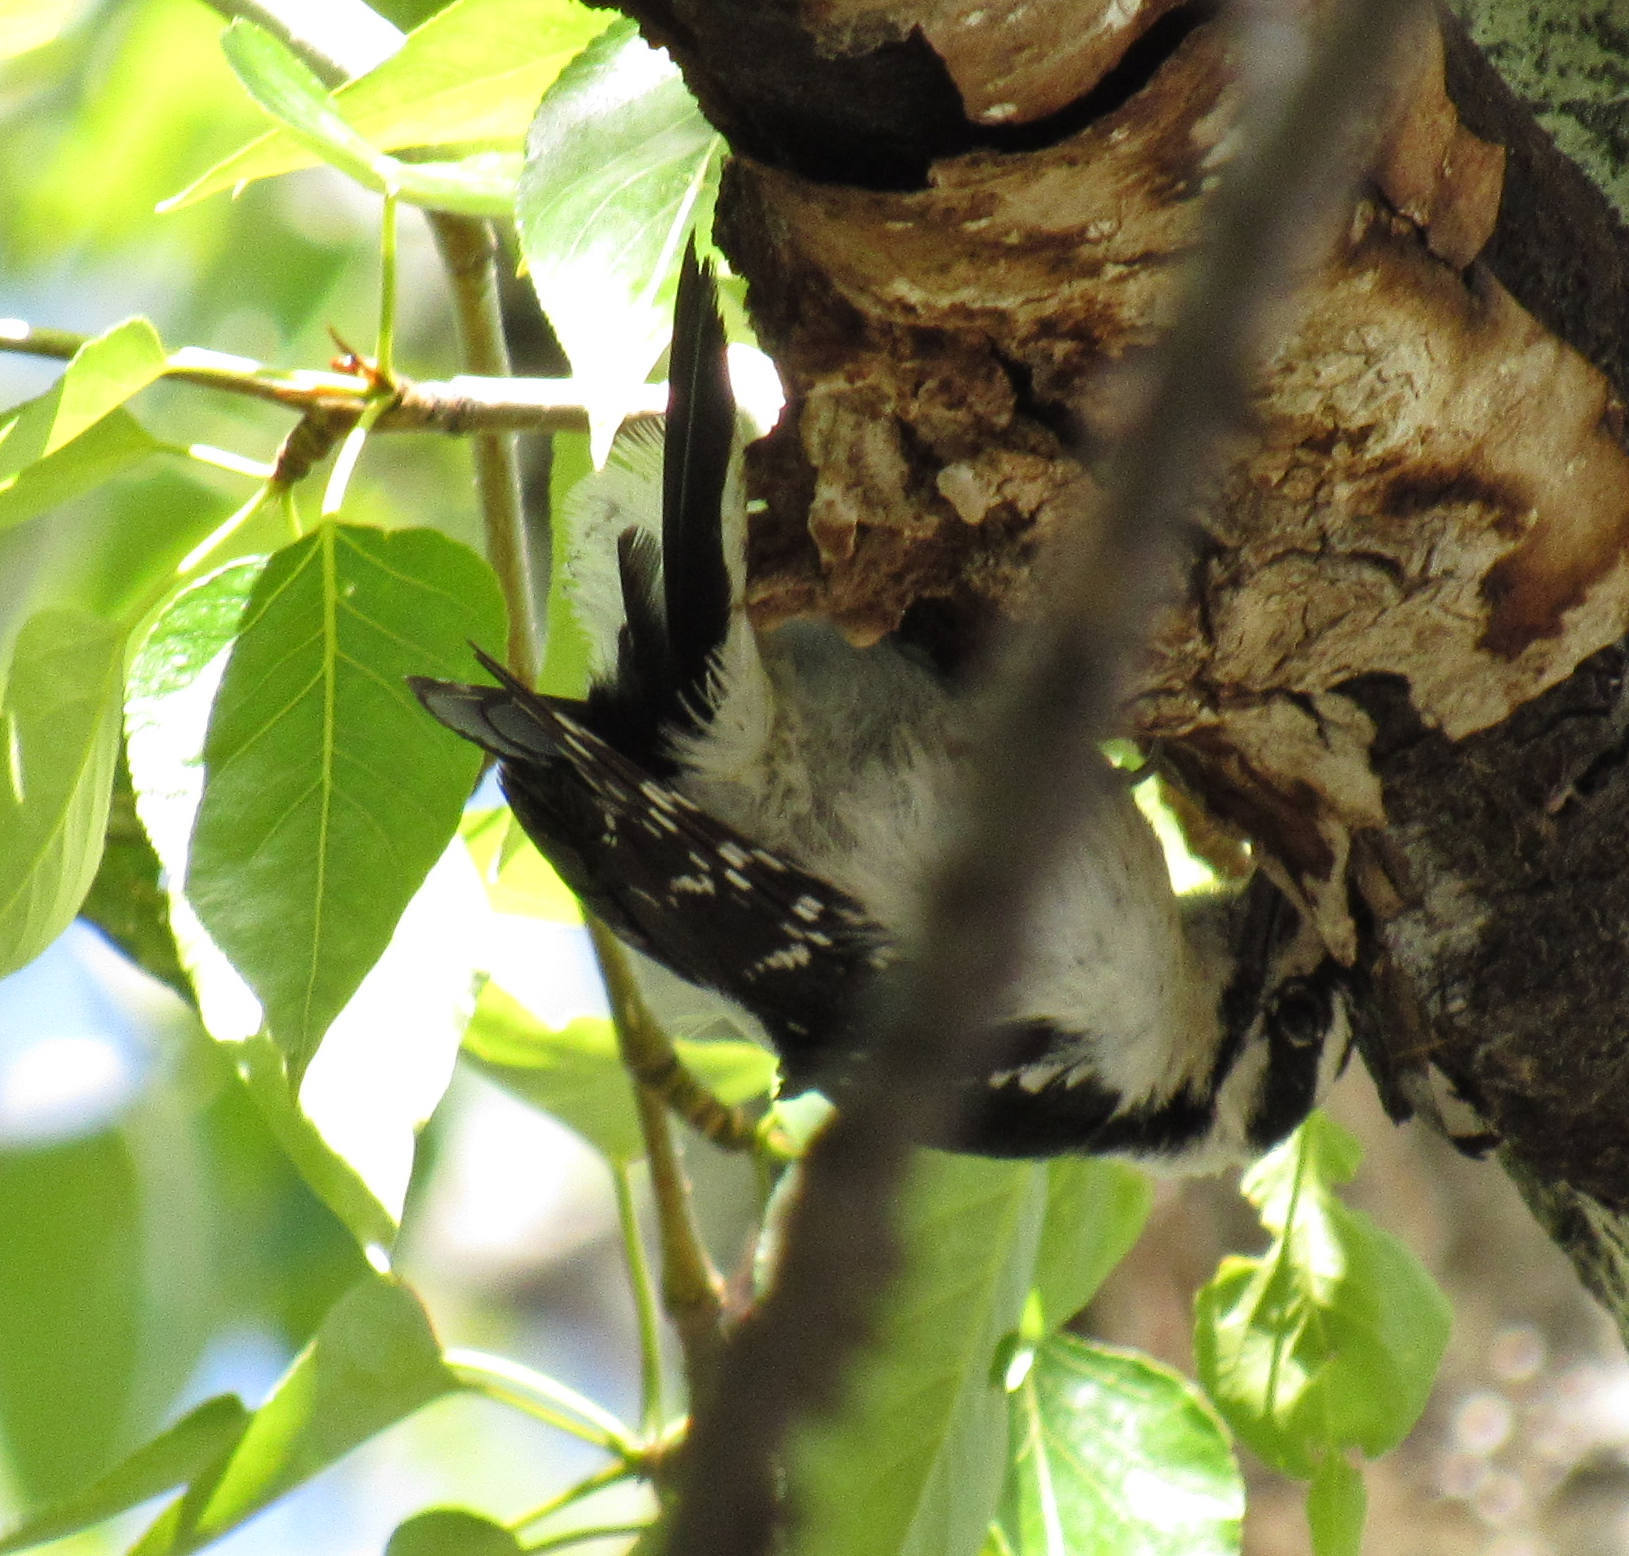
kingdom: Animalia
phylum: Chordata
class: Aves
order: Piciformes
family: Picidae
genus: Dryobates
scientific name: Dryobates pubescens
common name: Downy woodpecker
